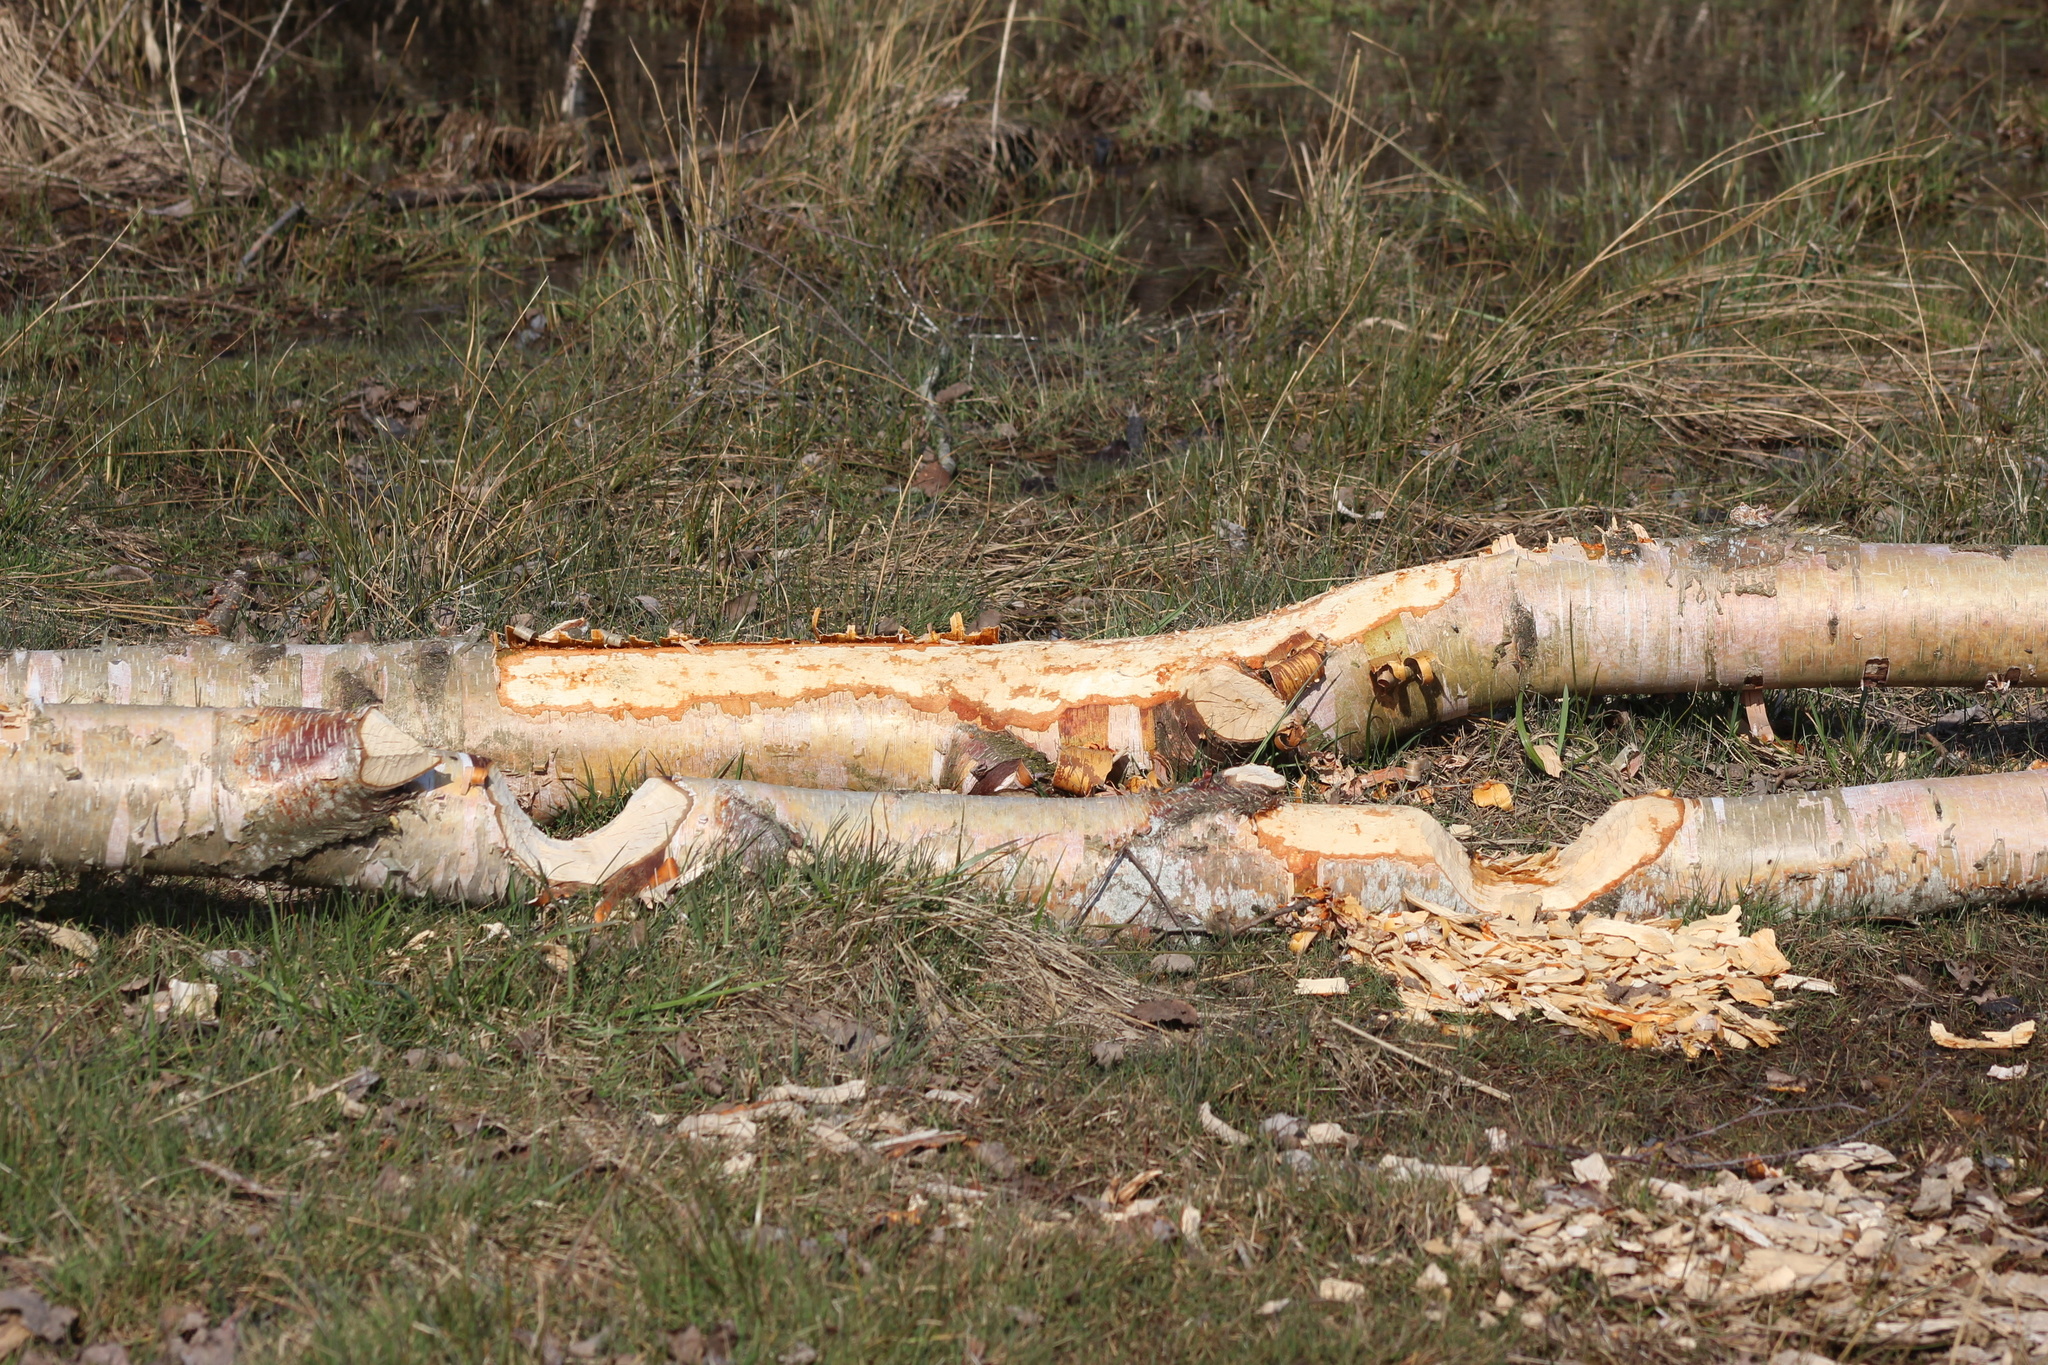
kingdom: Animalia
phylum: Chordata
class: Mammalia
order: Rodentia
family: Castoridae
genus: Castor
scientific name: Castor canadensis
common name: American beaver
